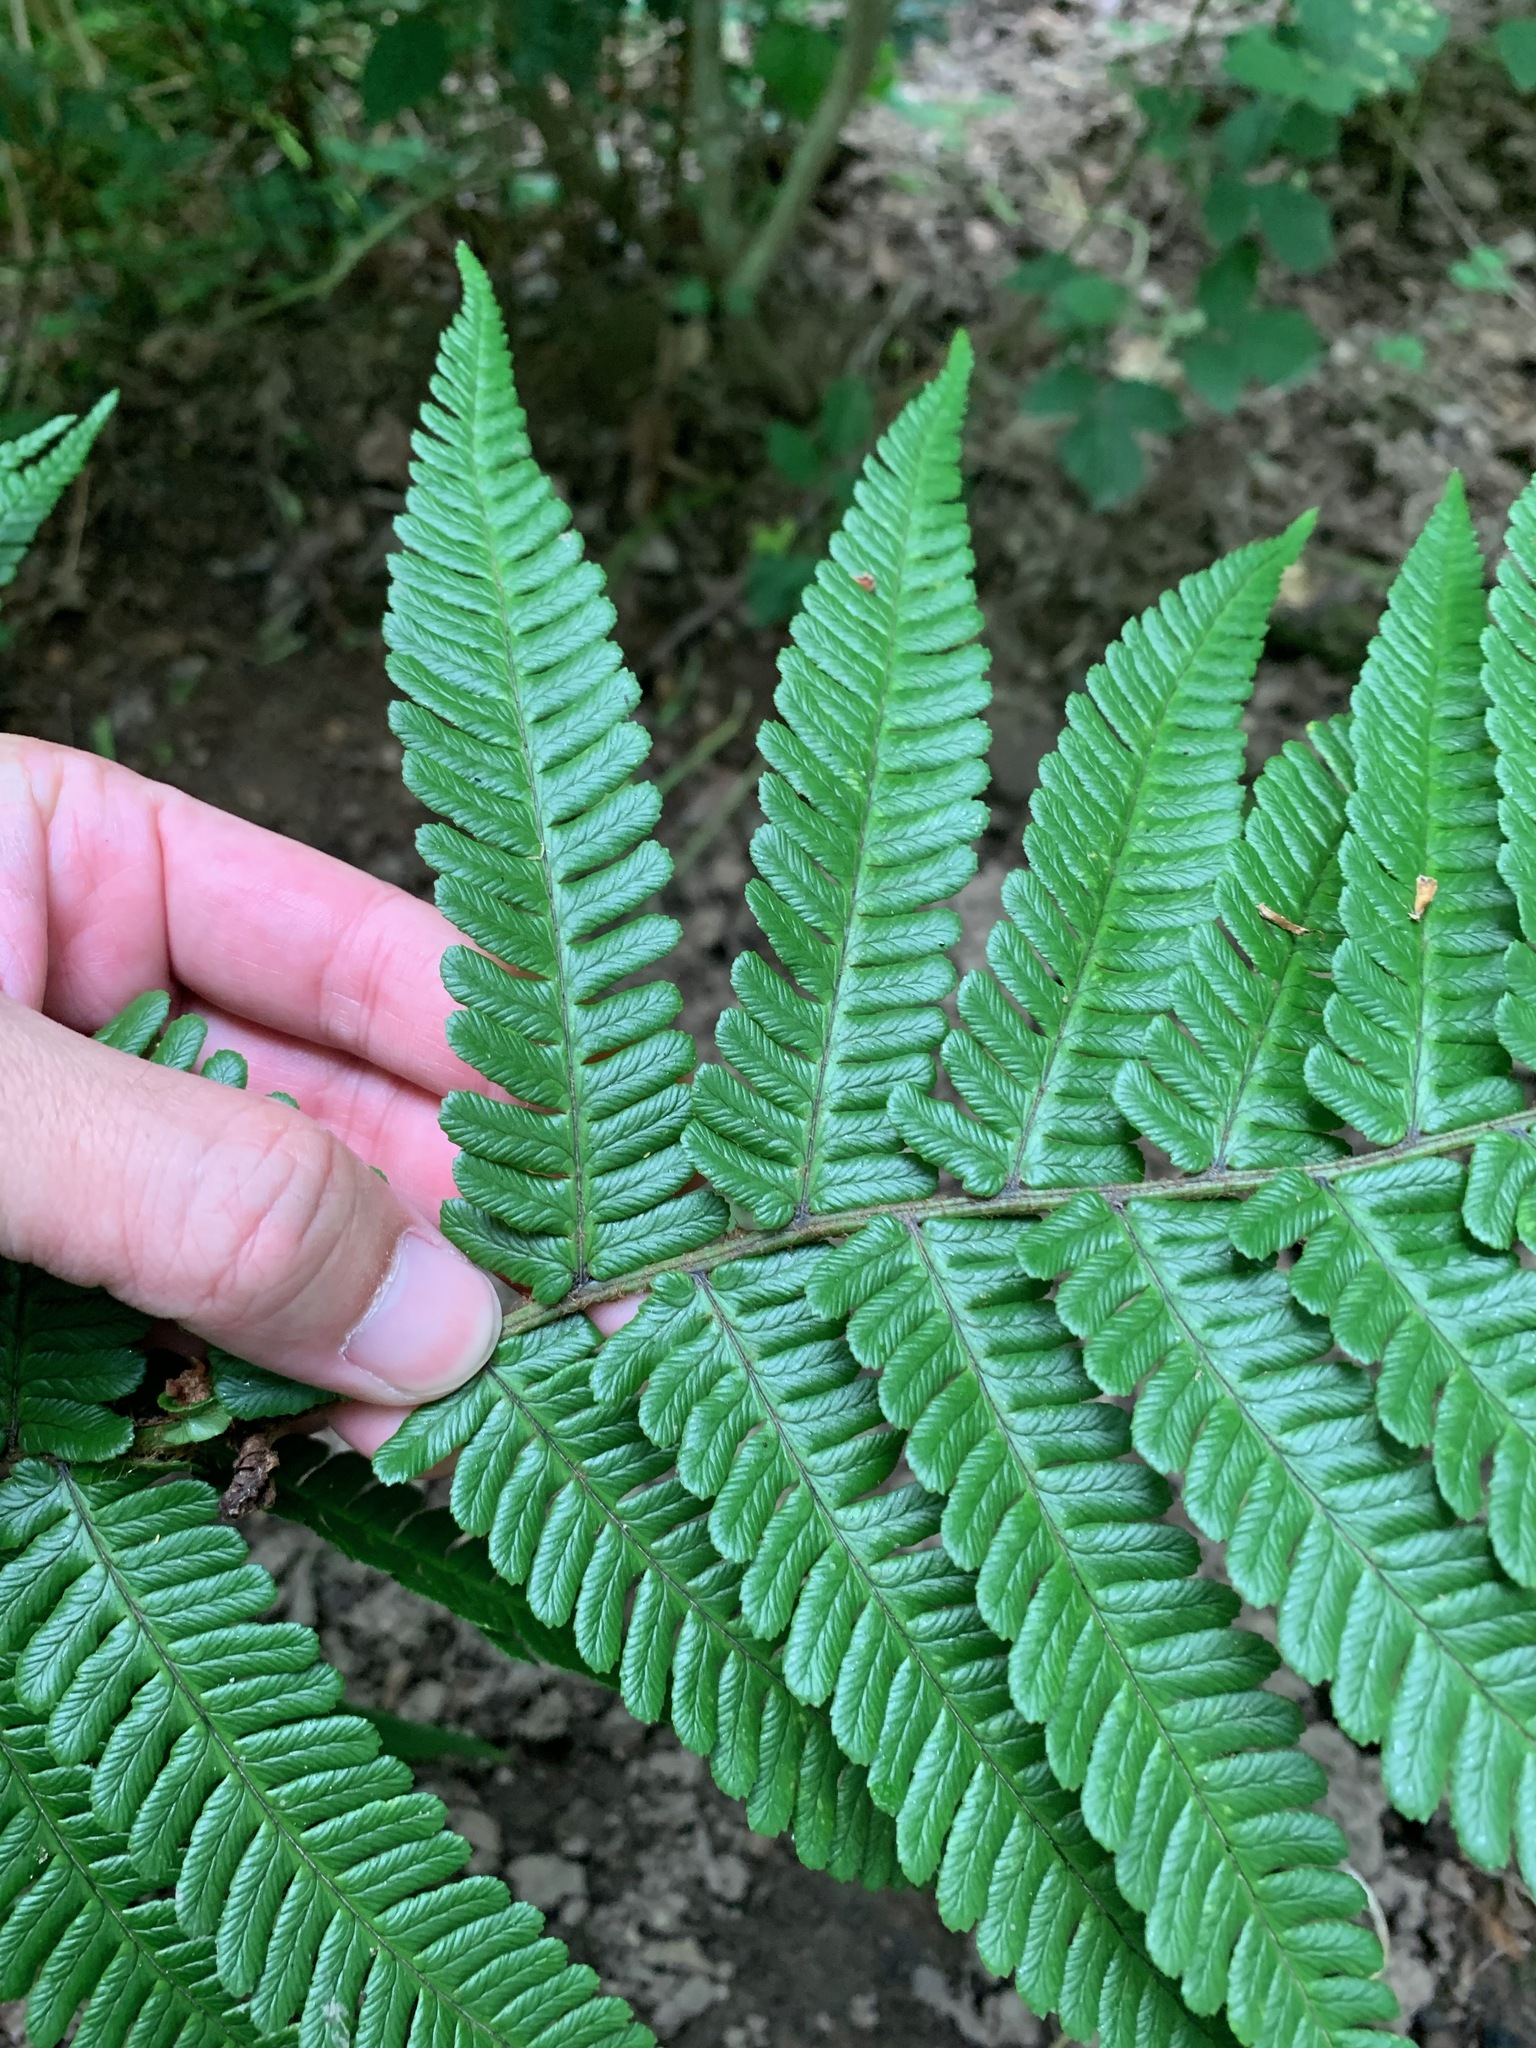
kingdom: Plantae
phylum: Tracheophyta
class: Polypodiopsida
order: Polypodiales
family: Dryopteridaceae
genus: Dryopteris
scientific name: Dryopteris filix-mas
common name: Male fern
